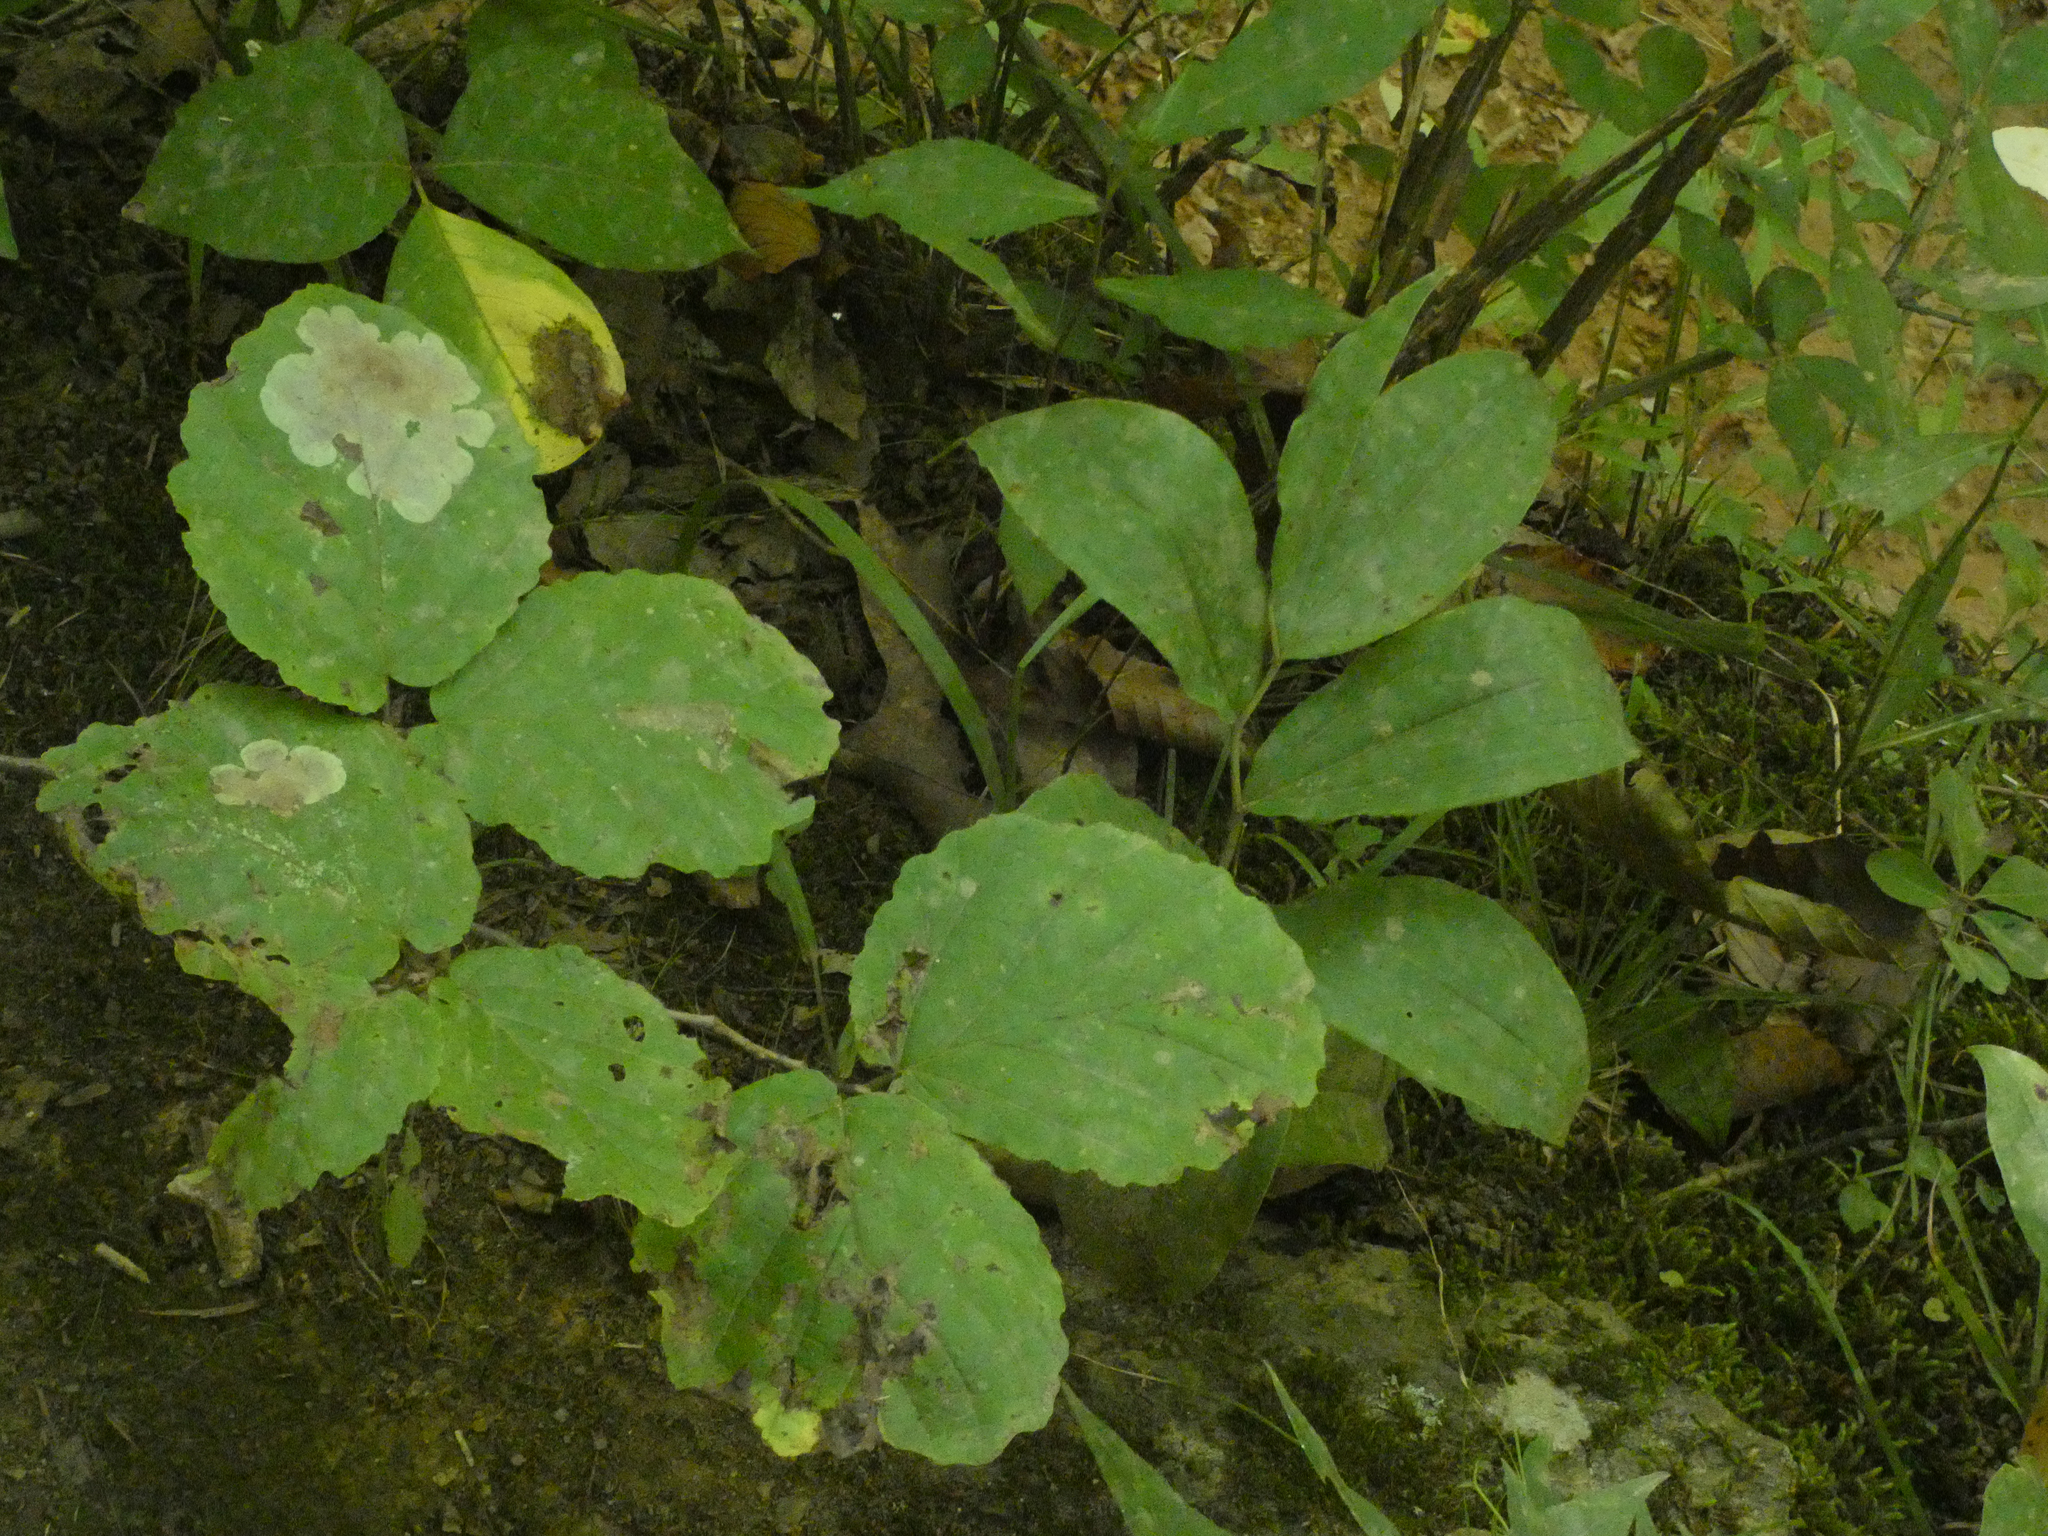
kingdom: Plantae
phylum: Tracheophyta
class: Magnoliopsida
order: Saxifragales
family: Hamamelidaceae
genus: Hamamelis
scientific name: Hamamelis virginiana
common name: Witch-hazel
